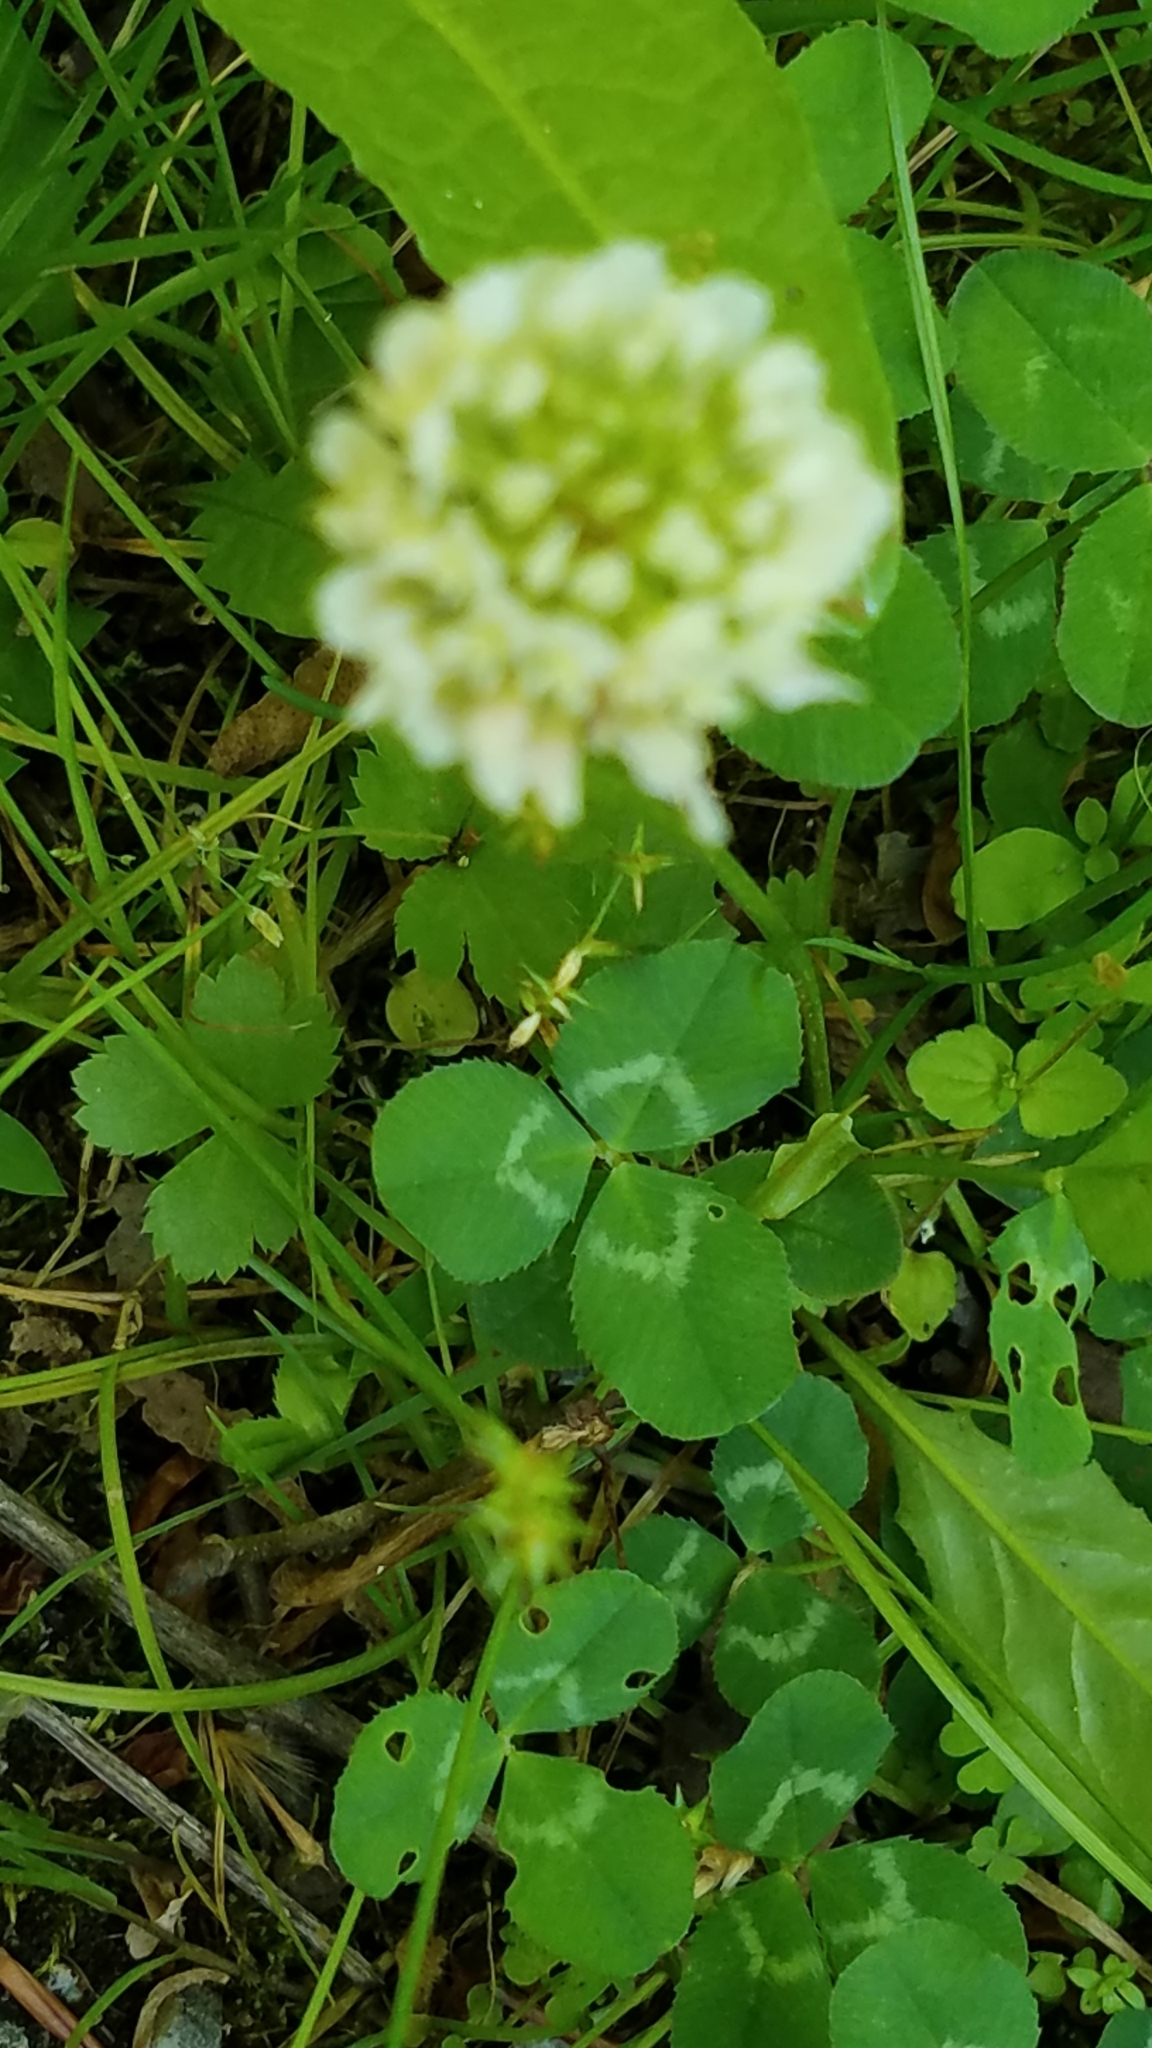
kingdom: Plantae
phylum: Tracheophyta
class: Magnoliopsida
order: Fabales
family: Fabaceae
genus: Trifolium
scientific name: Trifolium repens
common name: White clover
